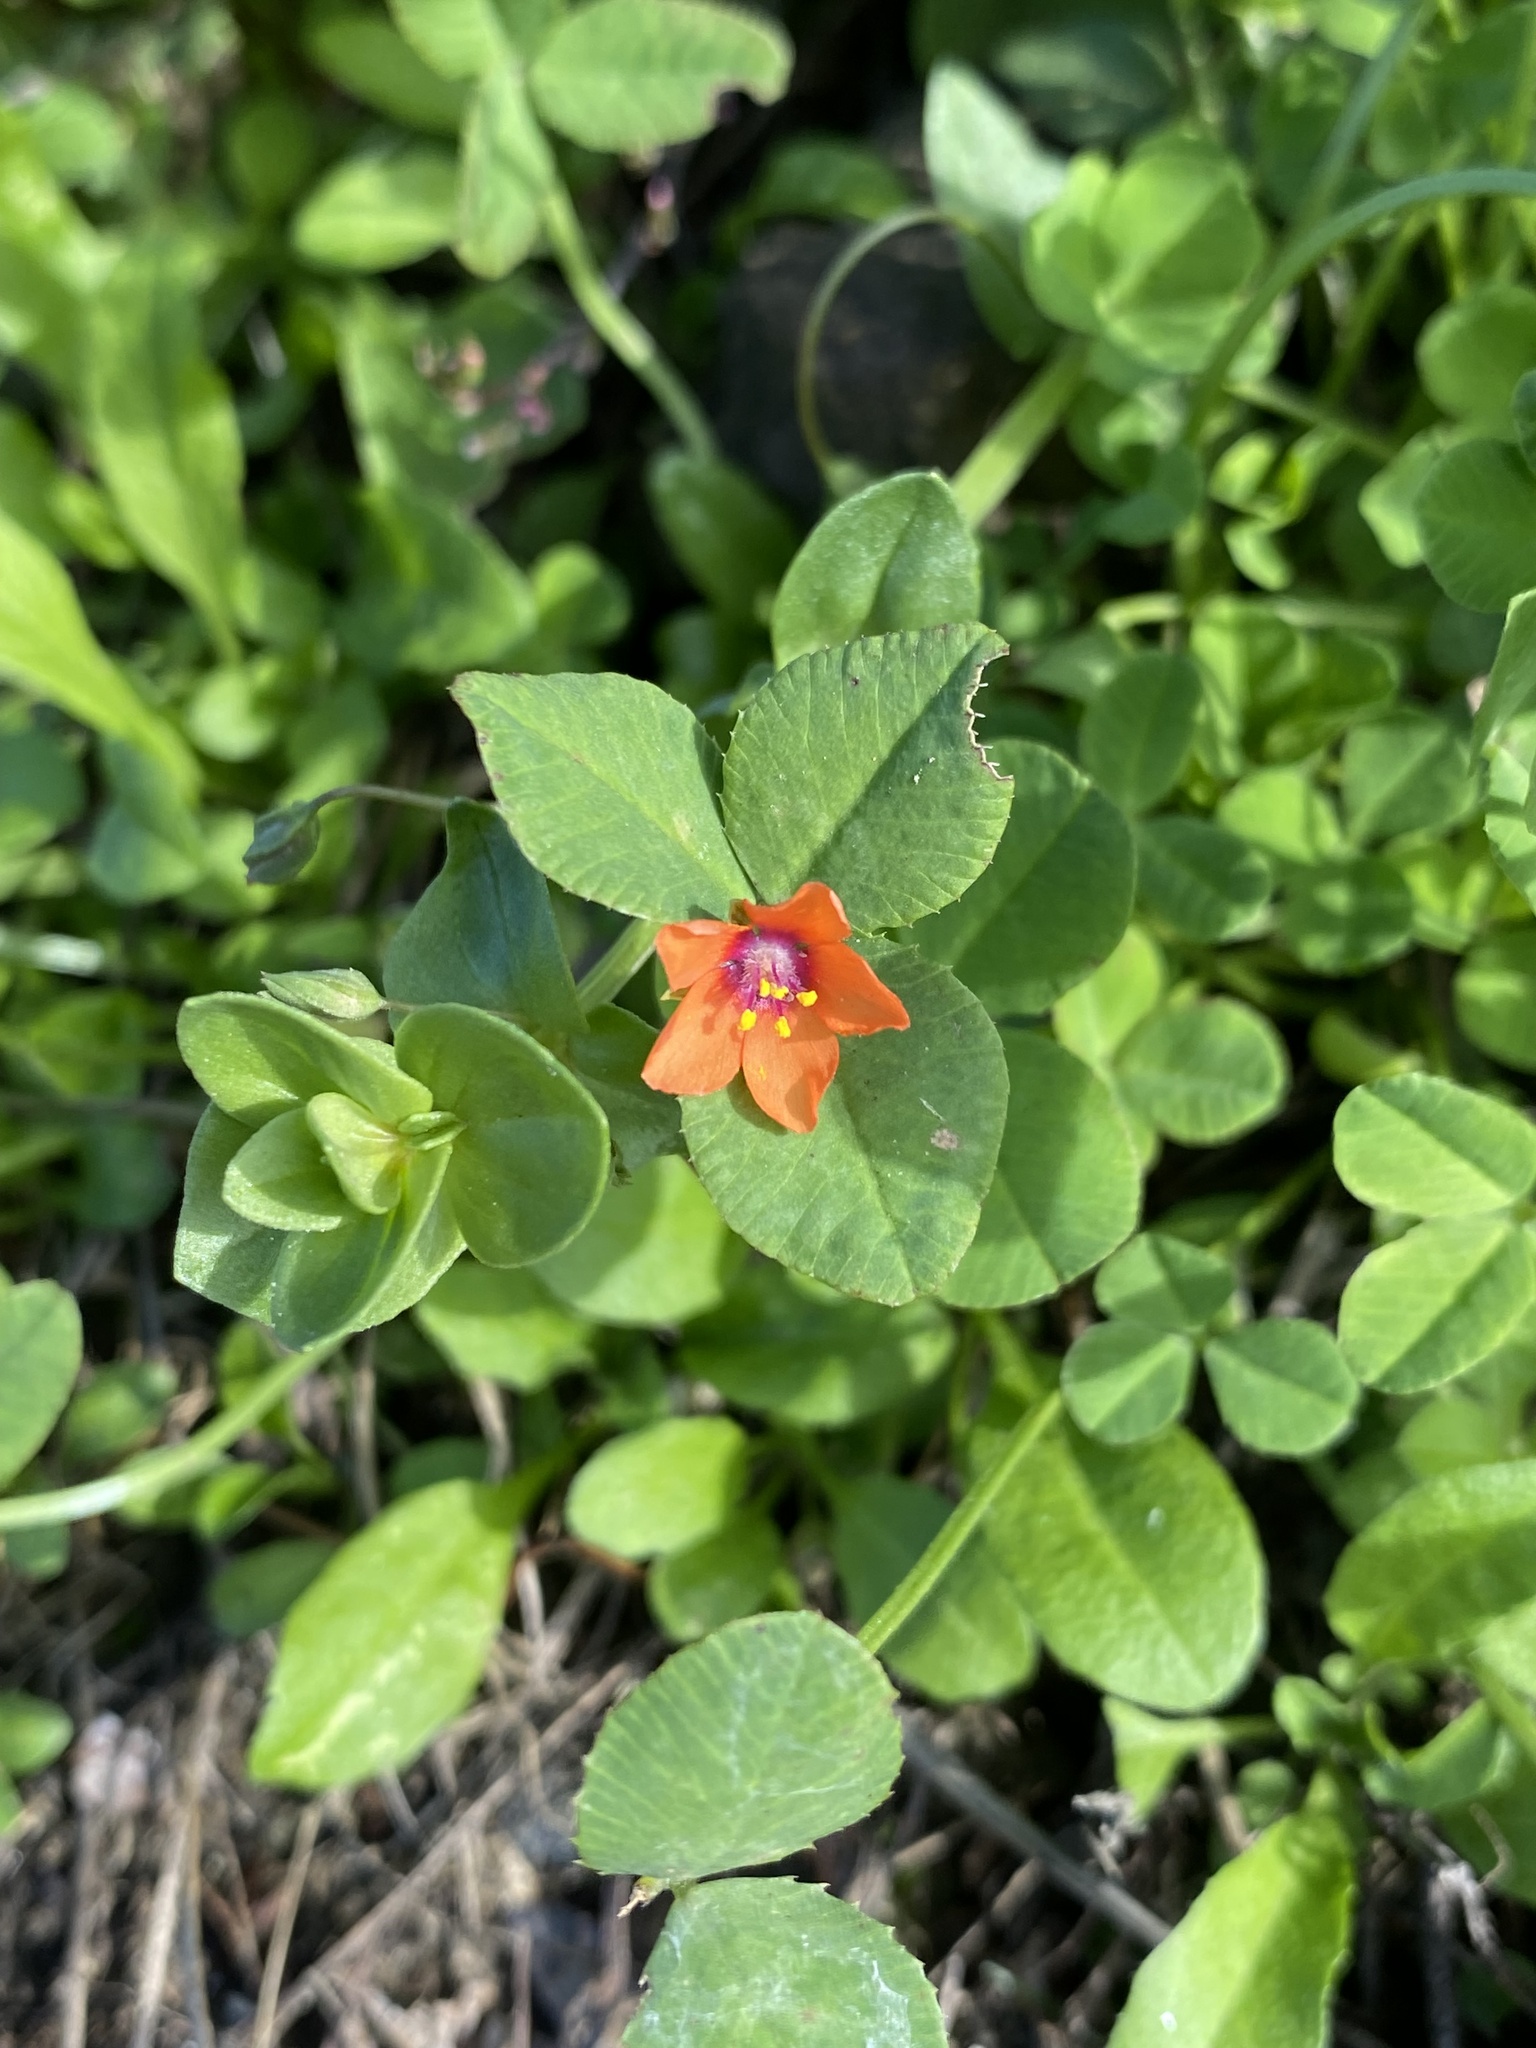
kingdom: Plantae
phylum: Tracheophyta
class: Magnoliopsida
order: Ericales
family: Primulaceae
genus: Lysimachia
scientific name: Lysimachia arvensis
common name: Scarlet pimpernel
